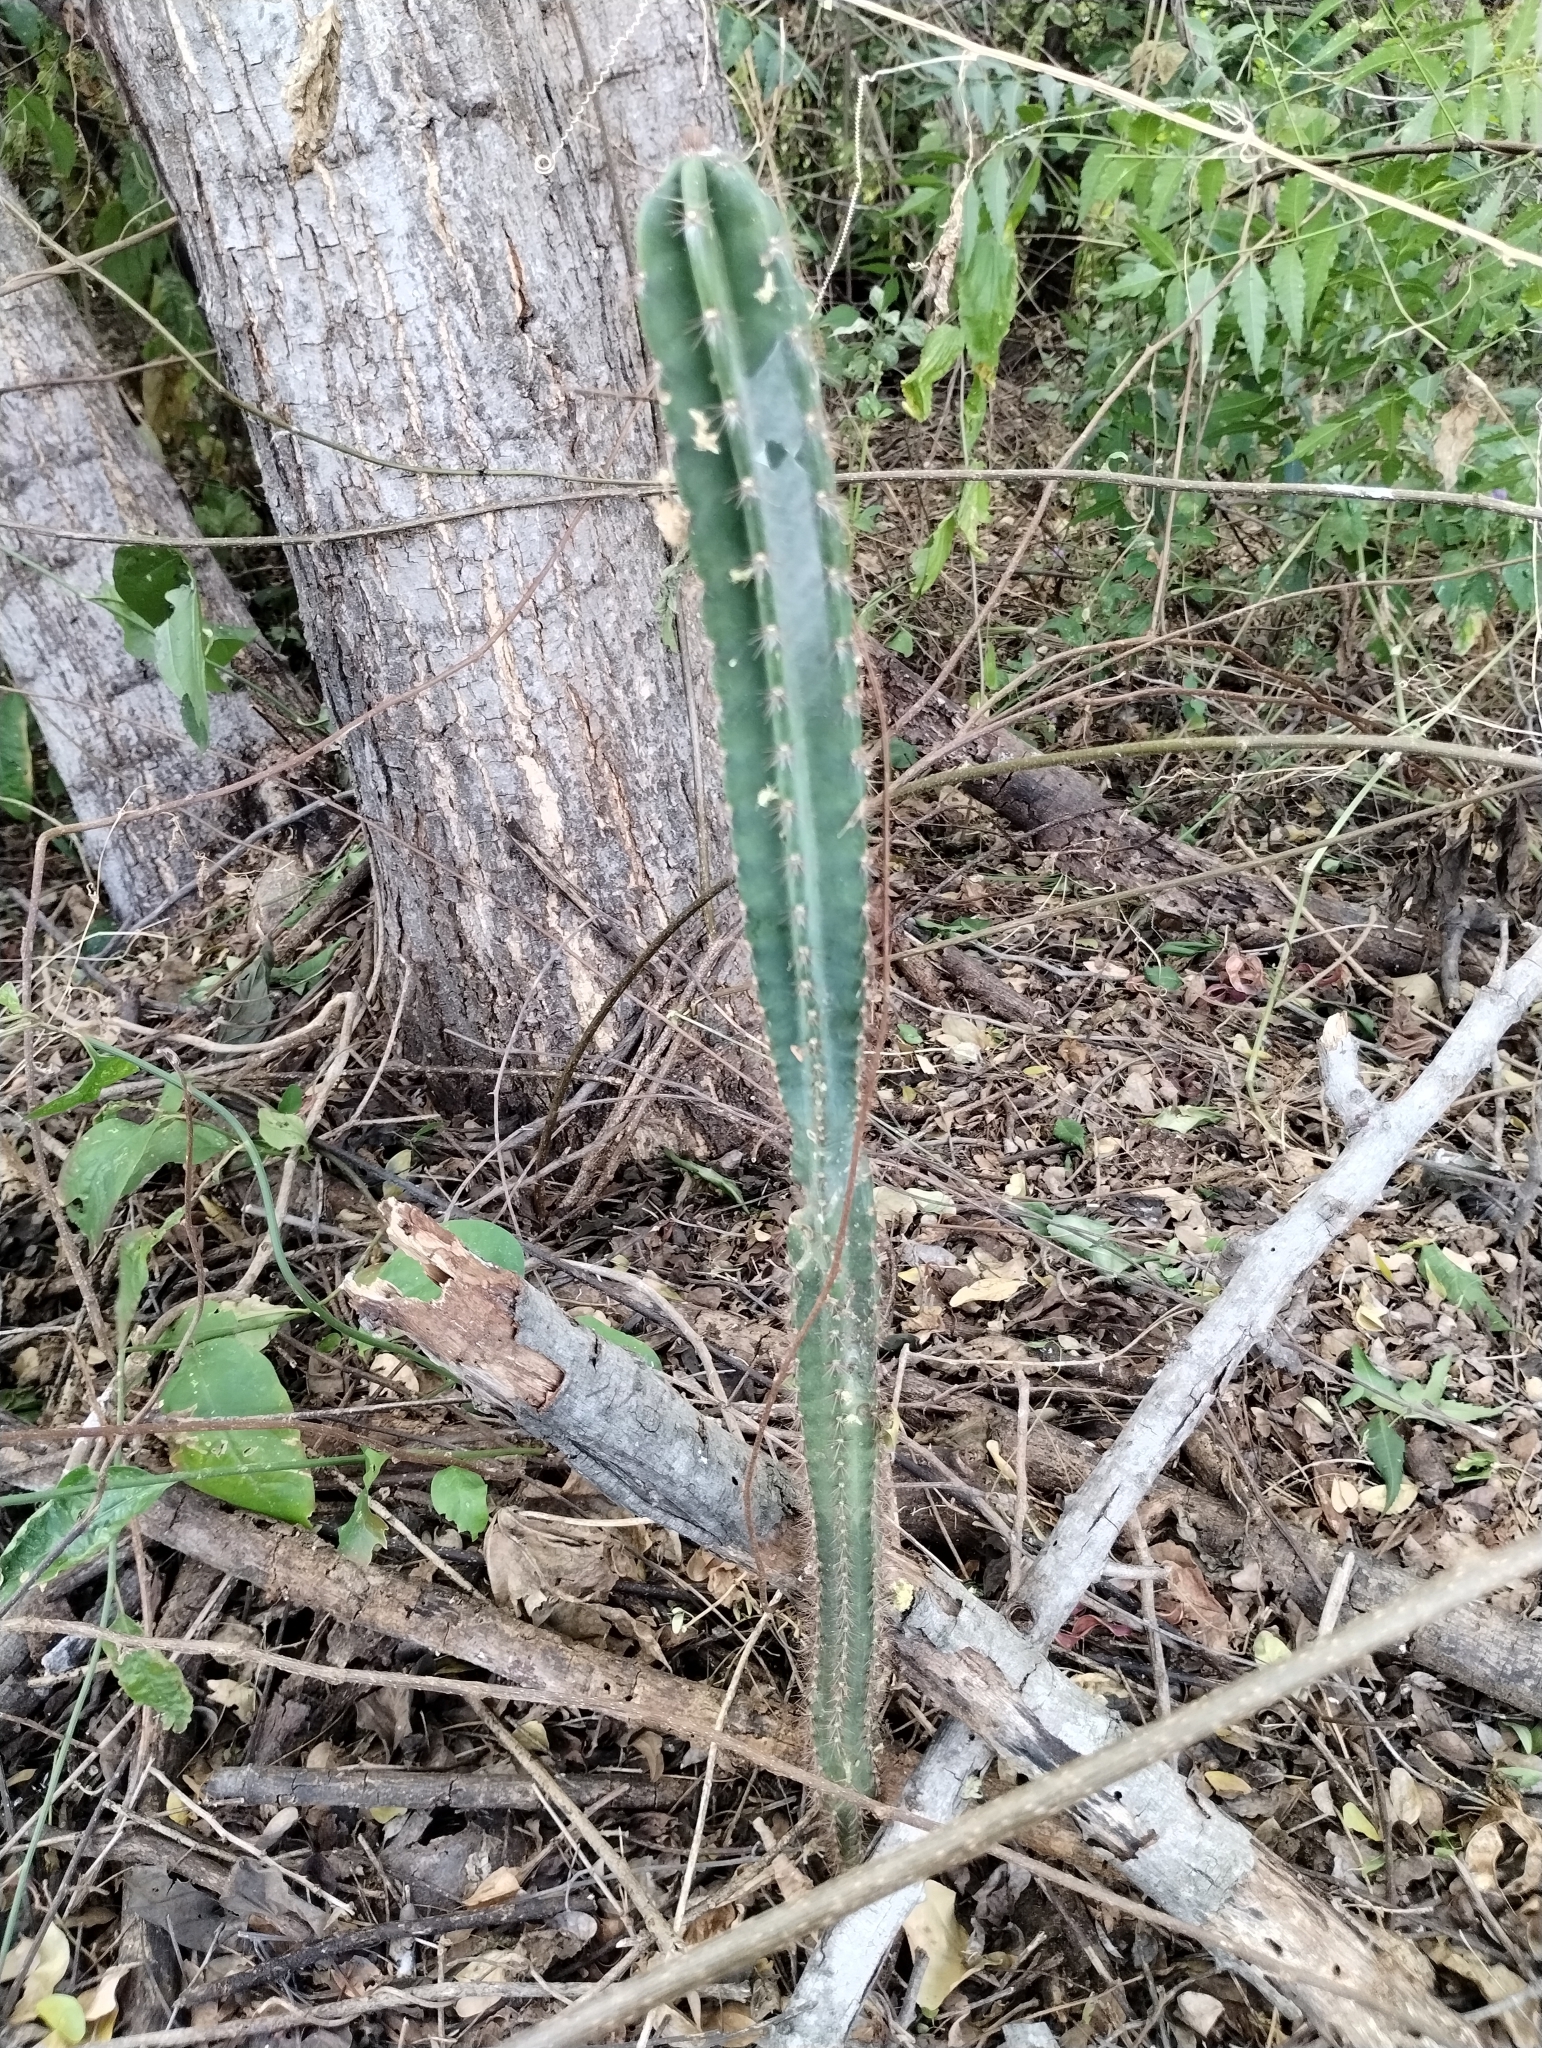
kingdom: Plantae
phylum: Tracheophyta
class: Magnoliopsida
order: Caryophyllales
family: Cactaceae
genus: Cereus
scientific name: Cereus jamacaru
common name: Queen-of-the-night
